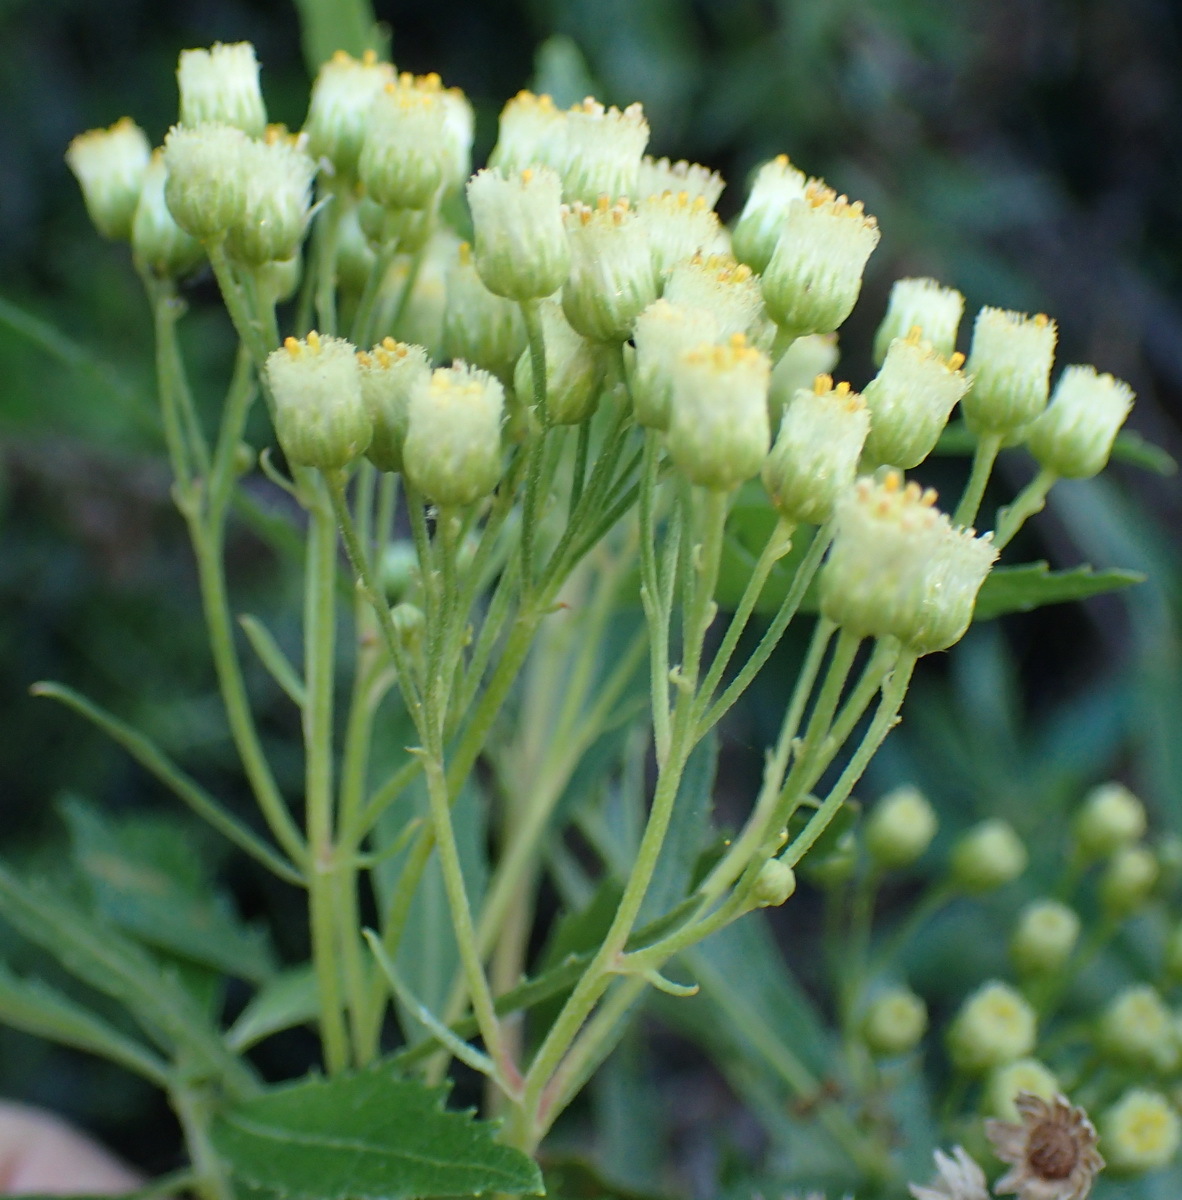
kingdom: Plantae
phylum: Tracheophyta
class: Magnoliopsida
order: Asterales
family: Asteraceae
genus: Nidorella
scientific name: Nidorella ivifolia
